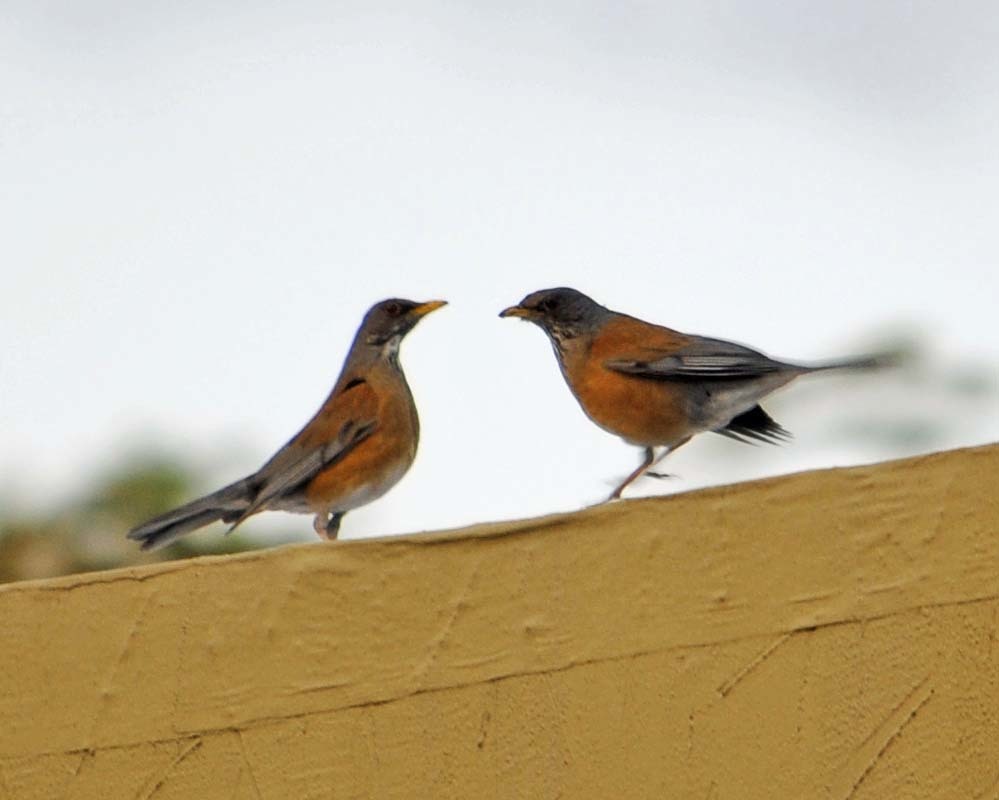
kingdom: Animalia
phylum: Chordata
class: Aves
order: Passeriformes
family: Turdidae
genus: Turdus
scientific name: Turdus rufopalliatus
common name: Rufous-backed robin
